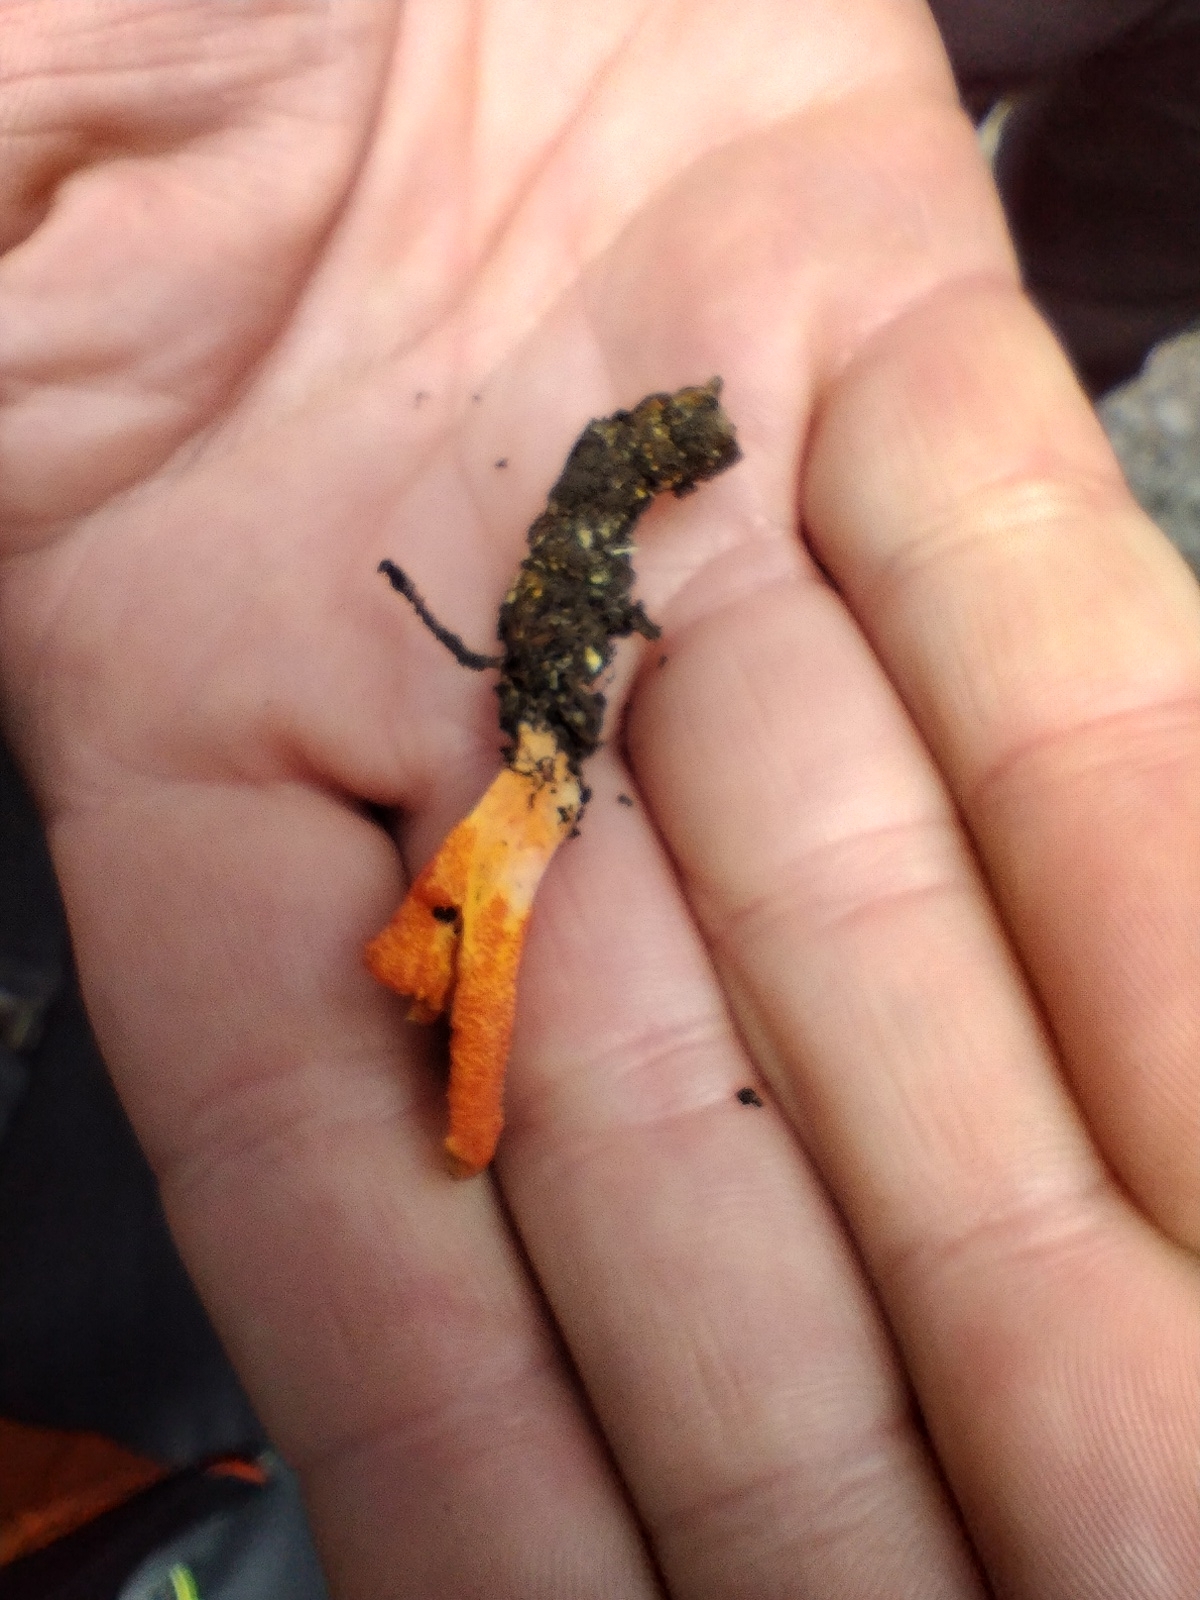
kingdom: Fungi
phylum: Ascomycota
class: Sordariomycetes
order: Hypocreales
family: Cordycipitaceae
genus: Cordyceps
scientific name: Cordyceps militaris
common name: Scarlet caterpillar fungus
